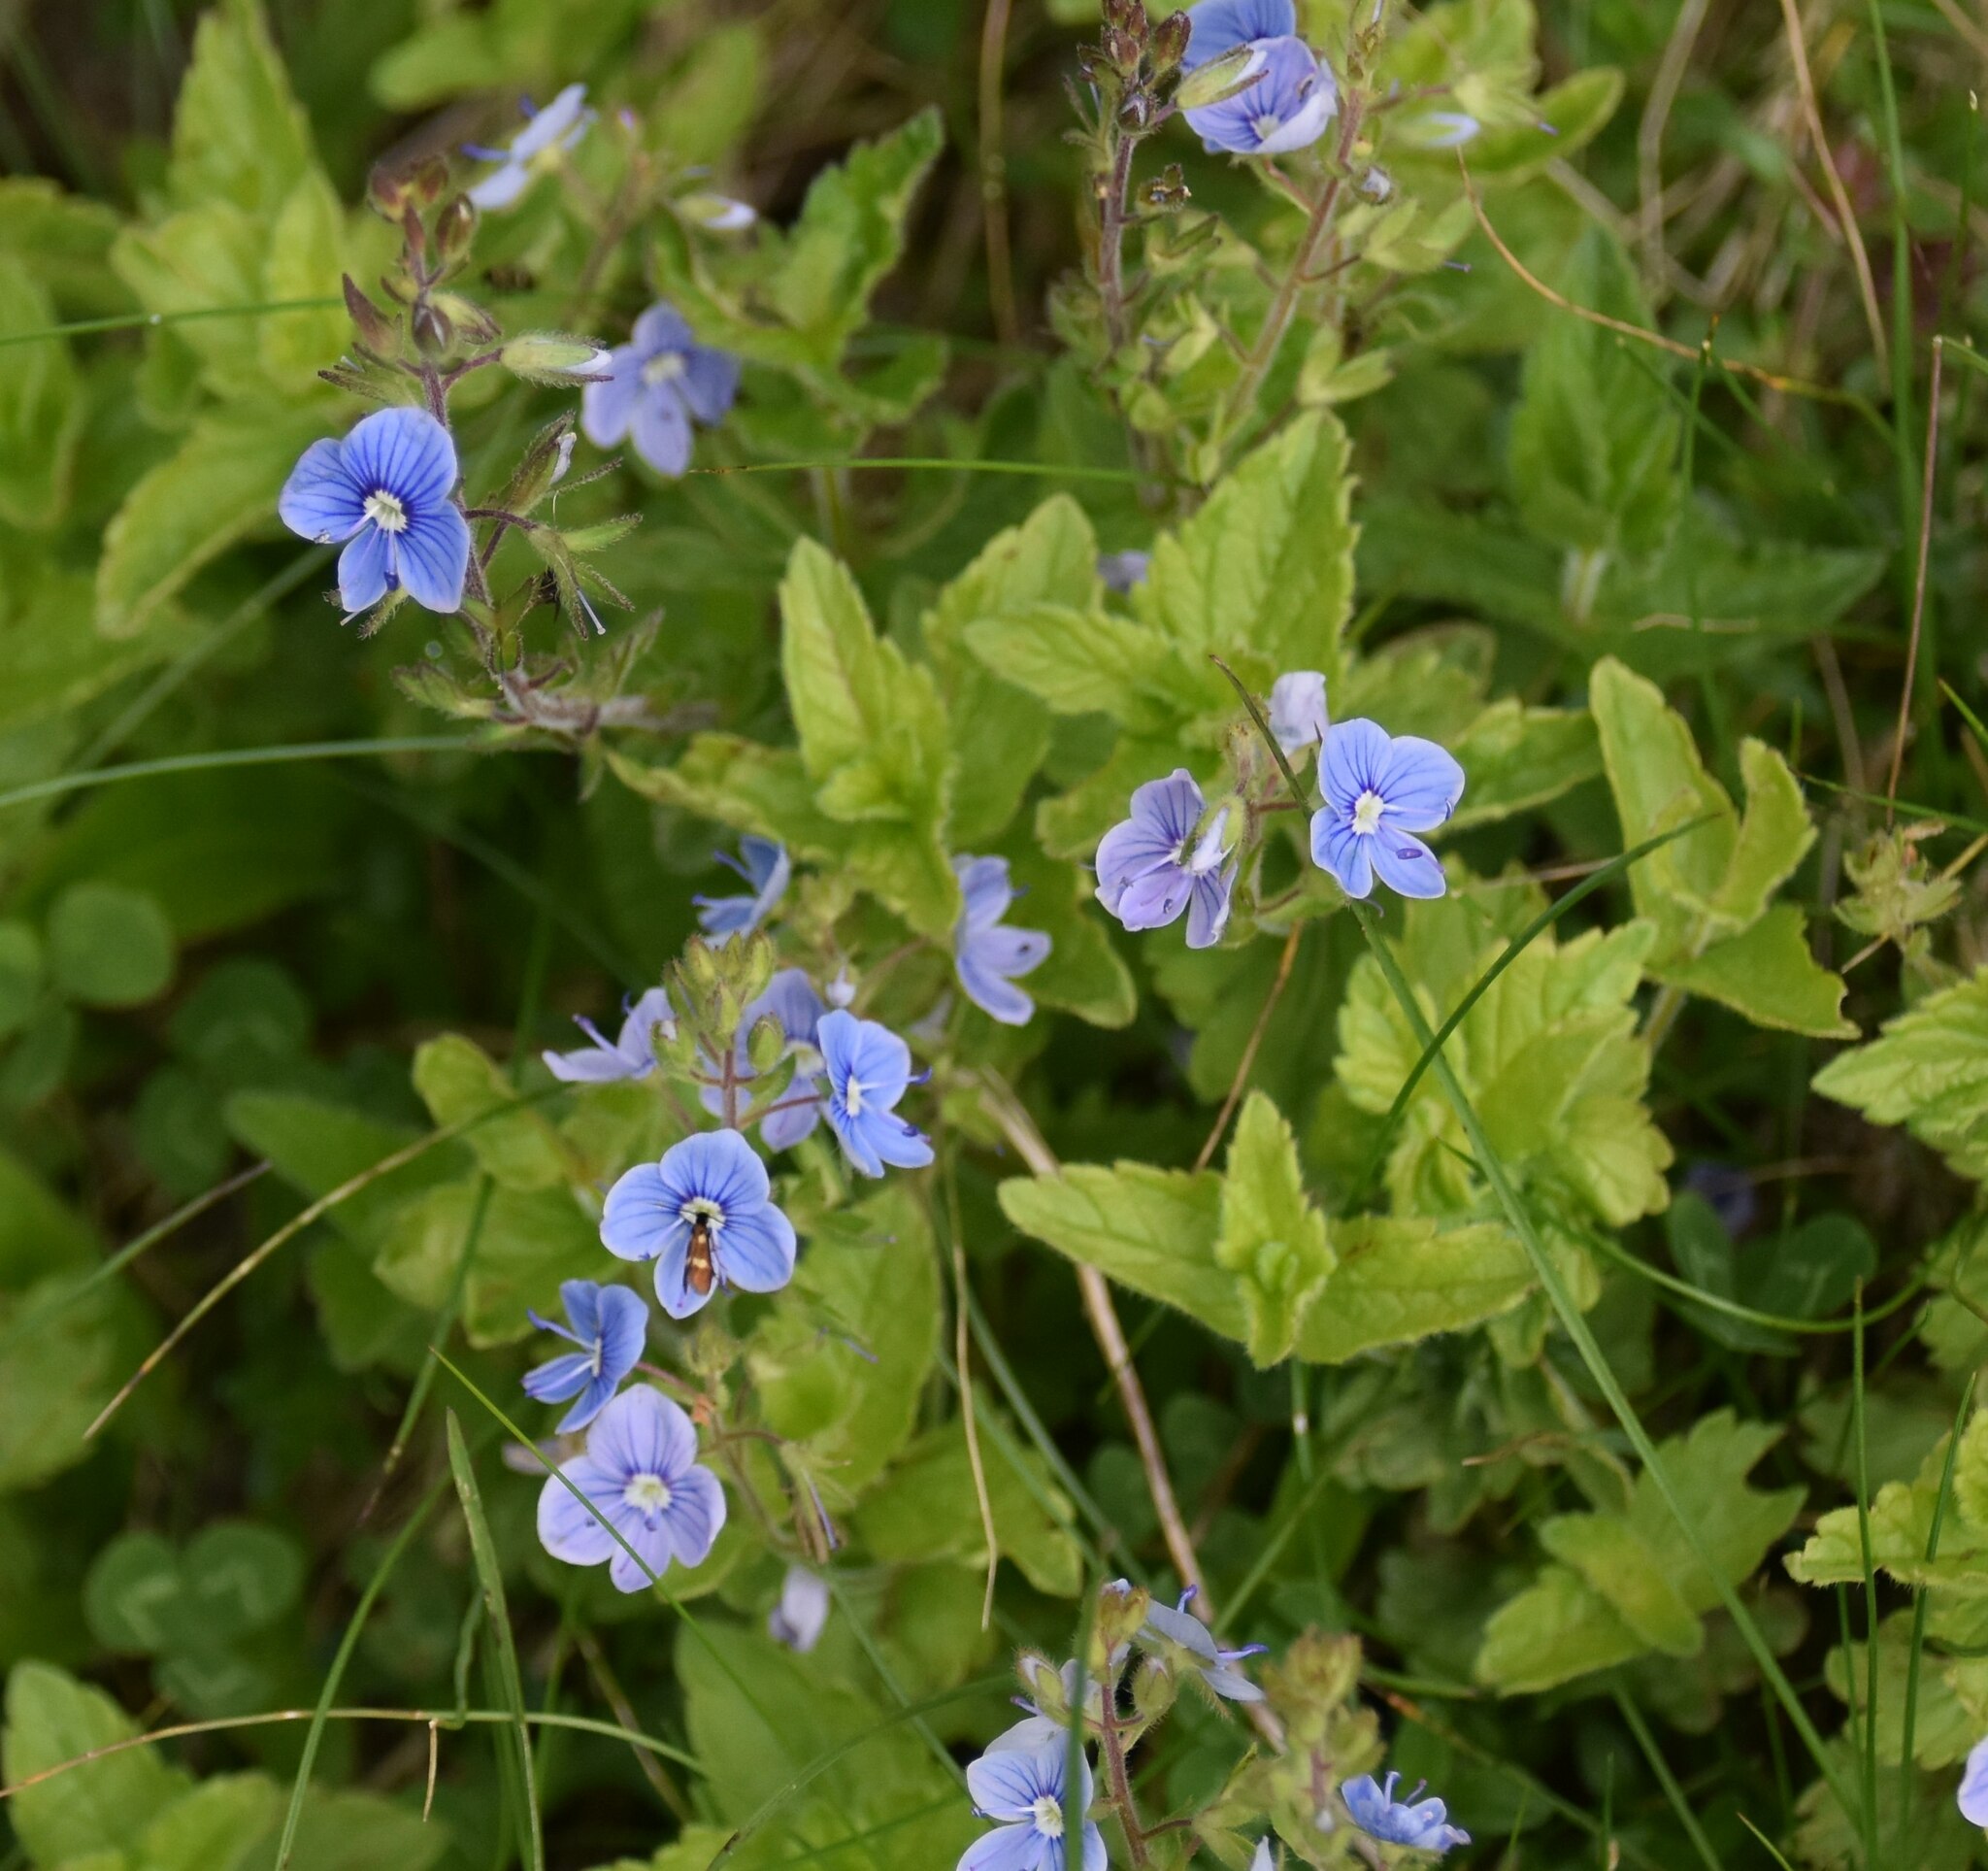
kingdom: Plantae
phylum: Tracheophyta
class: Magnoliopsida
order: Lamiales
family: Plantaginaceae
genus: Veronica
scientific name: Veronica chamaedrys
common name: Germander speedwell
